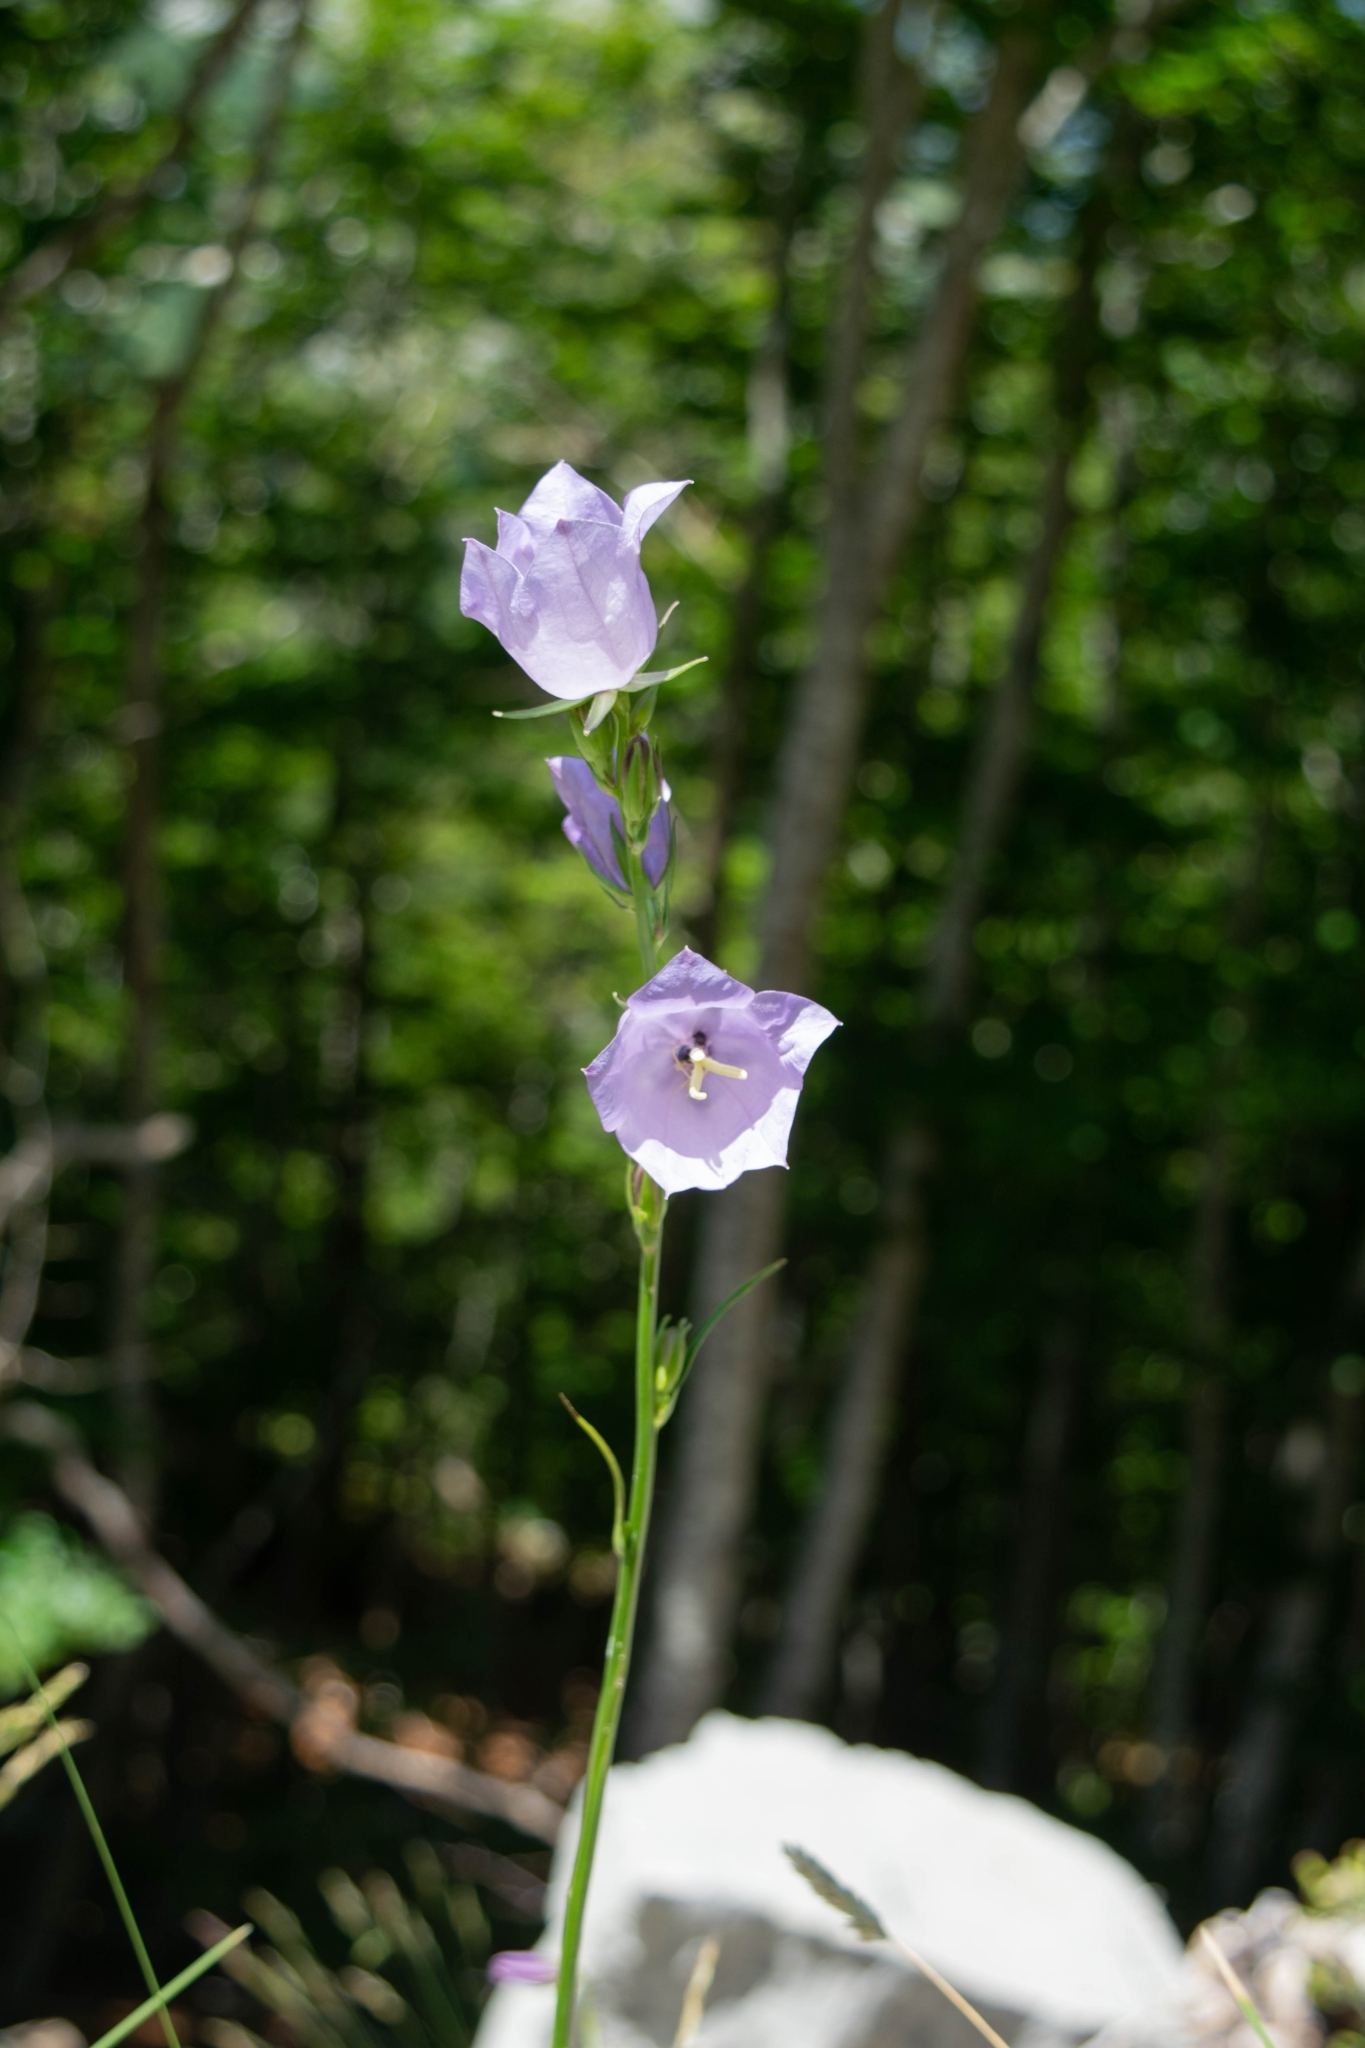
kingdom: Plantae
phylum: Tracheophyta
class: Magnoliopsida
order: Asterales
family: Campanulaceae
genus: Campanula
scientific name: Campanula persicifolia
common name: Peach-leaved bellflower
